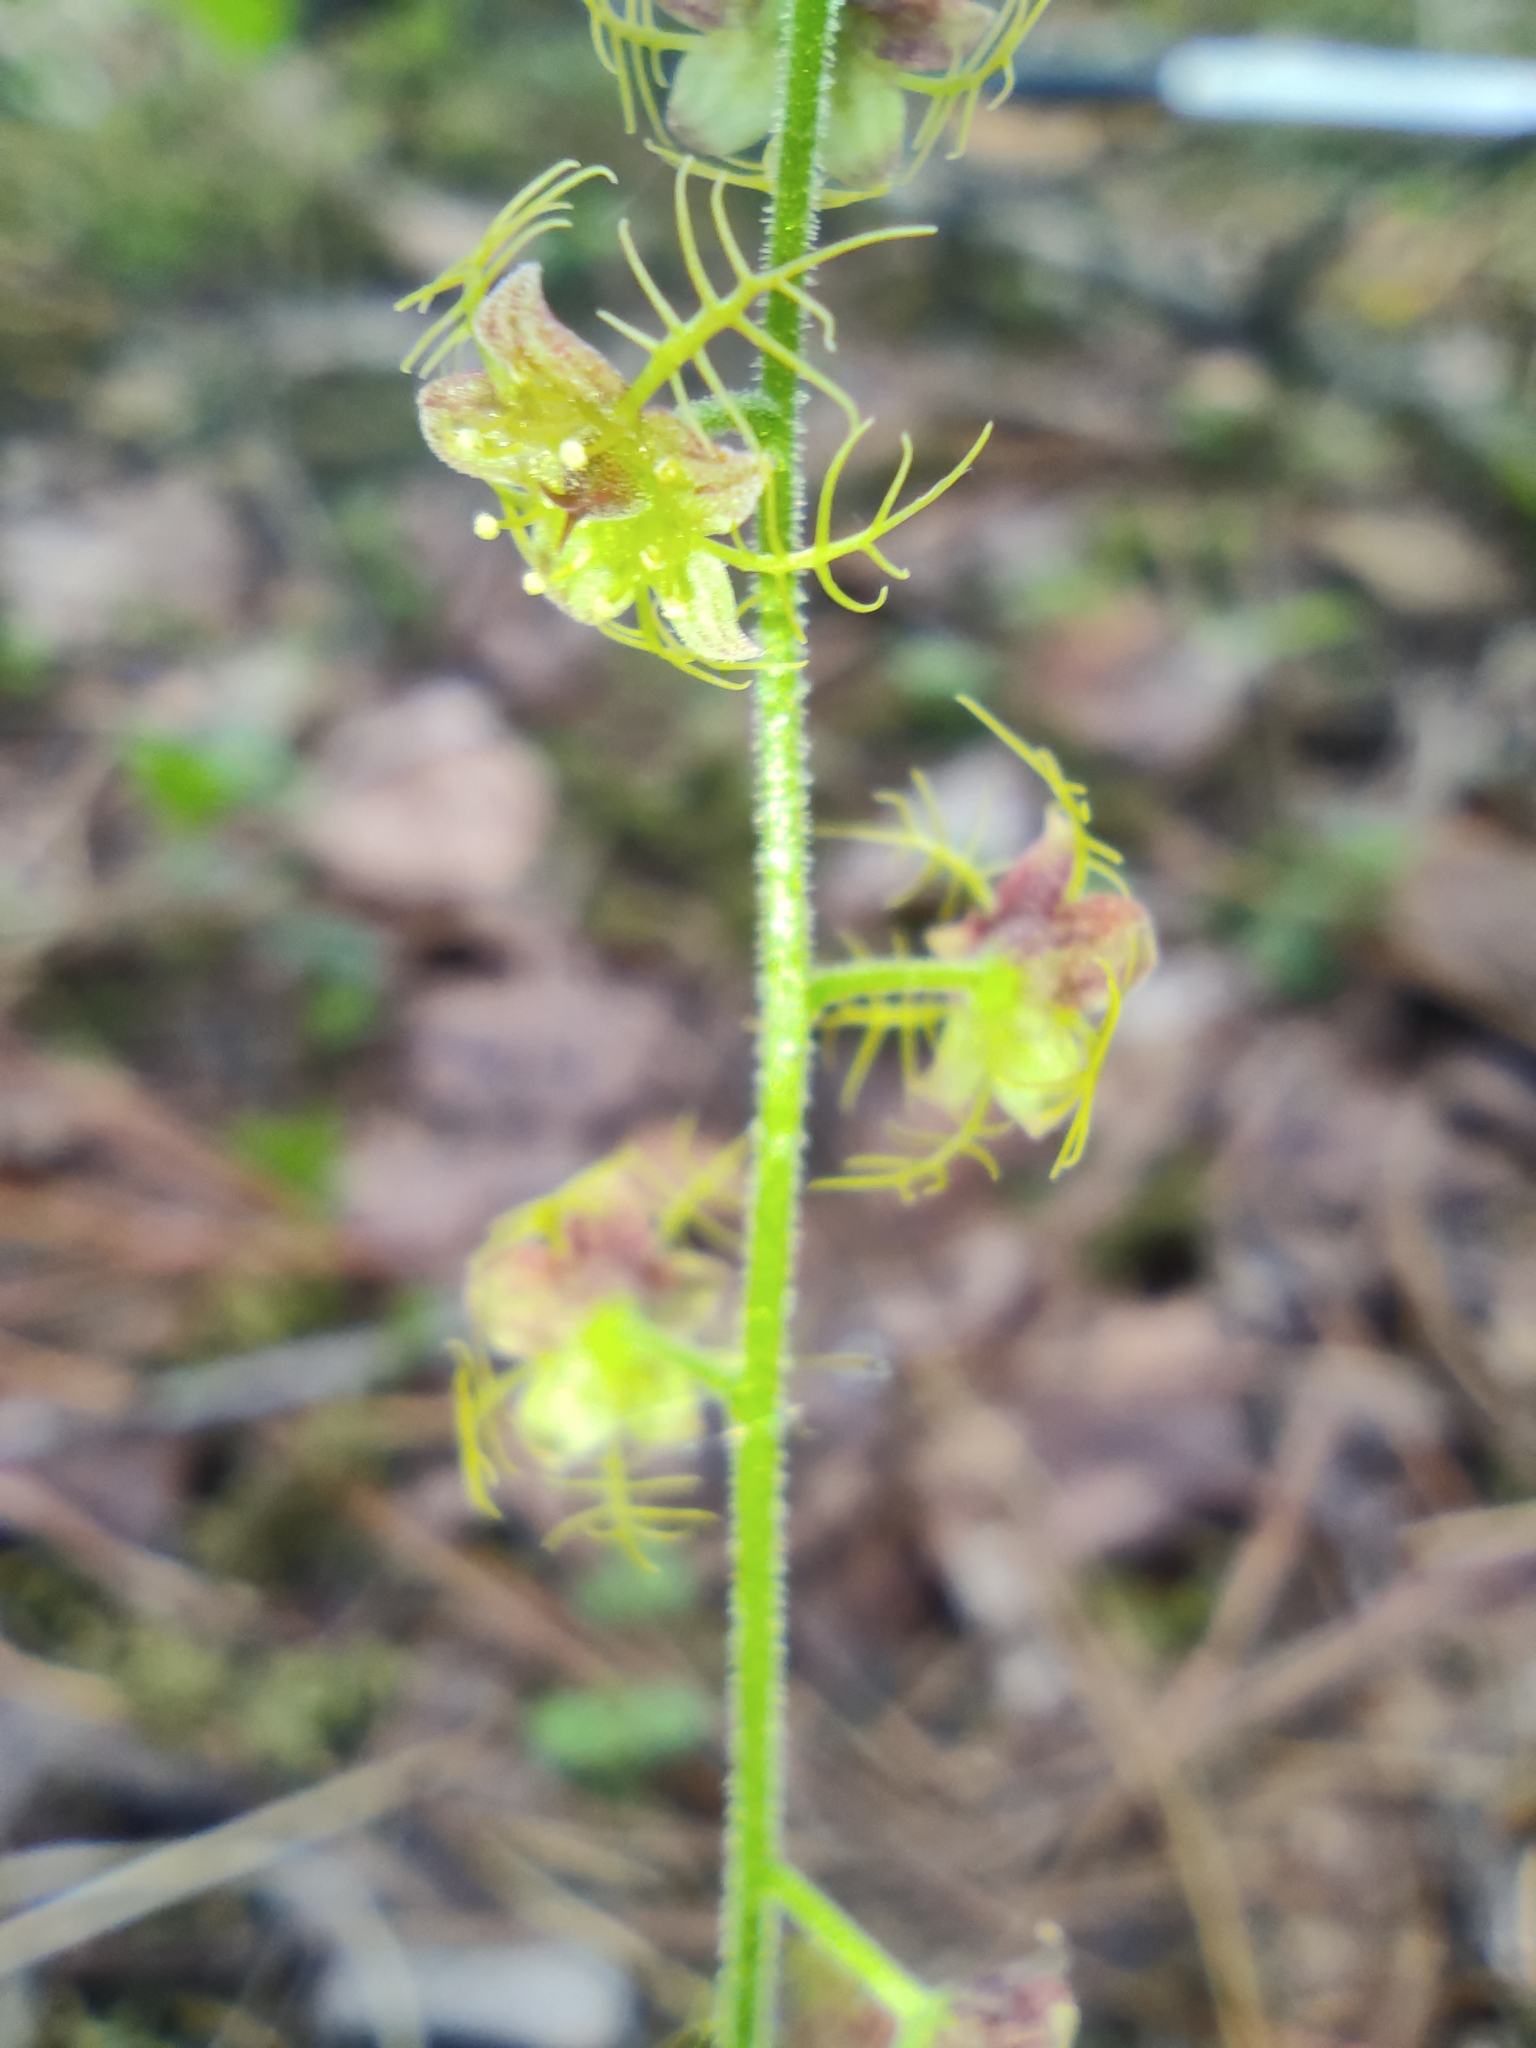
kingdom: Plantae
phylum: Tracheophyta
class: Magnoliopsida
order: Saxifragales
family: Saxifragaceae
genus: Mitella
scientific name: Mitella nuda
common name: Bare-stemmed bishop's-cap
